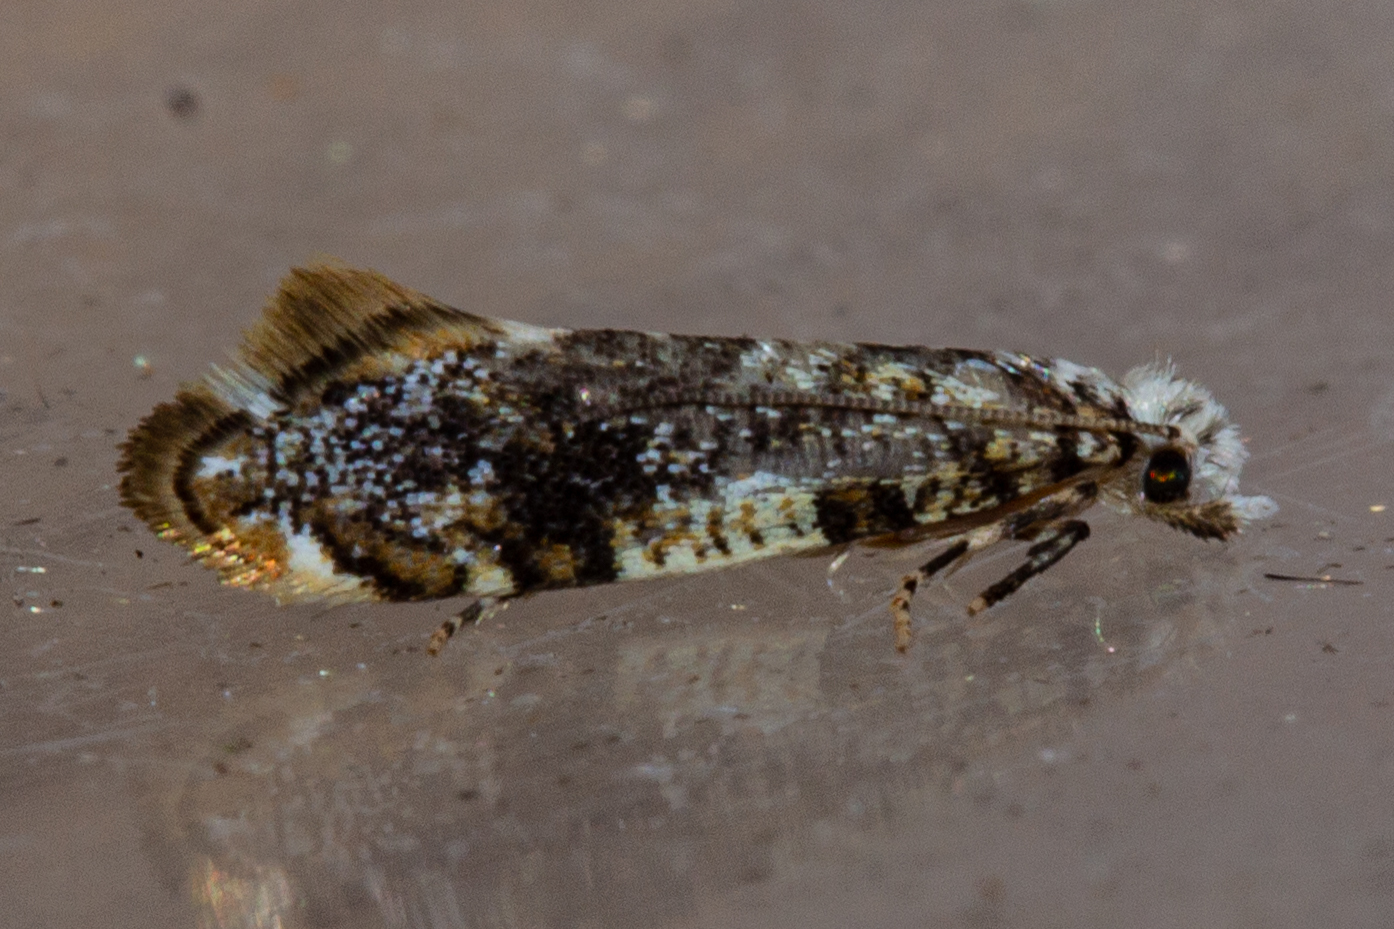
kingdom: Animalia
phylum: Arthropoda
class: Insecta
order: Lepidoptera
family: Tineidae
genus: Eschatotypa
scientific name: Eschatotypa derogatella
